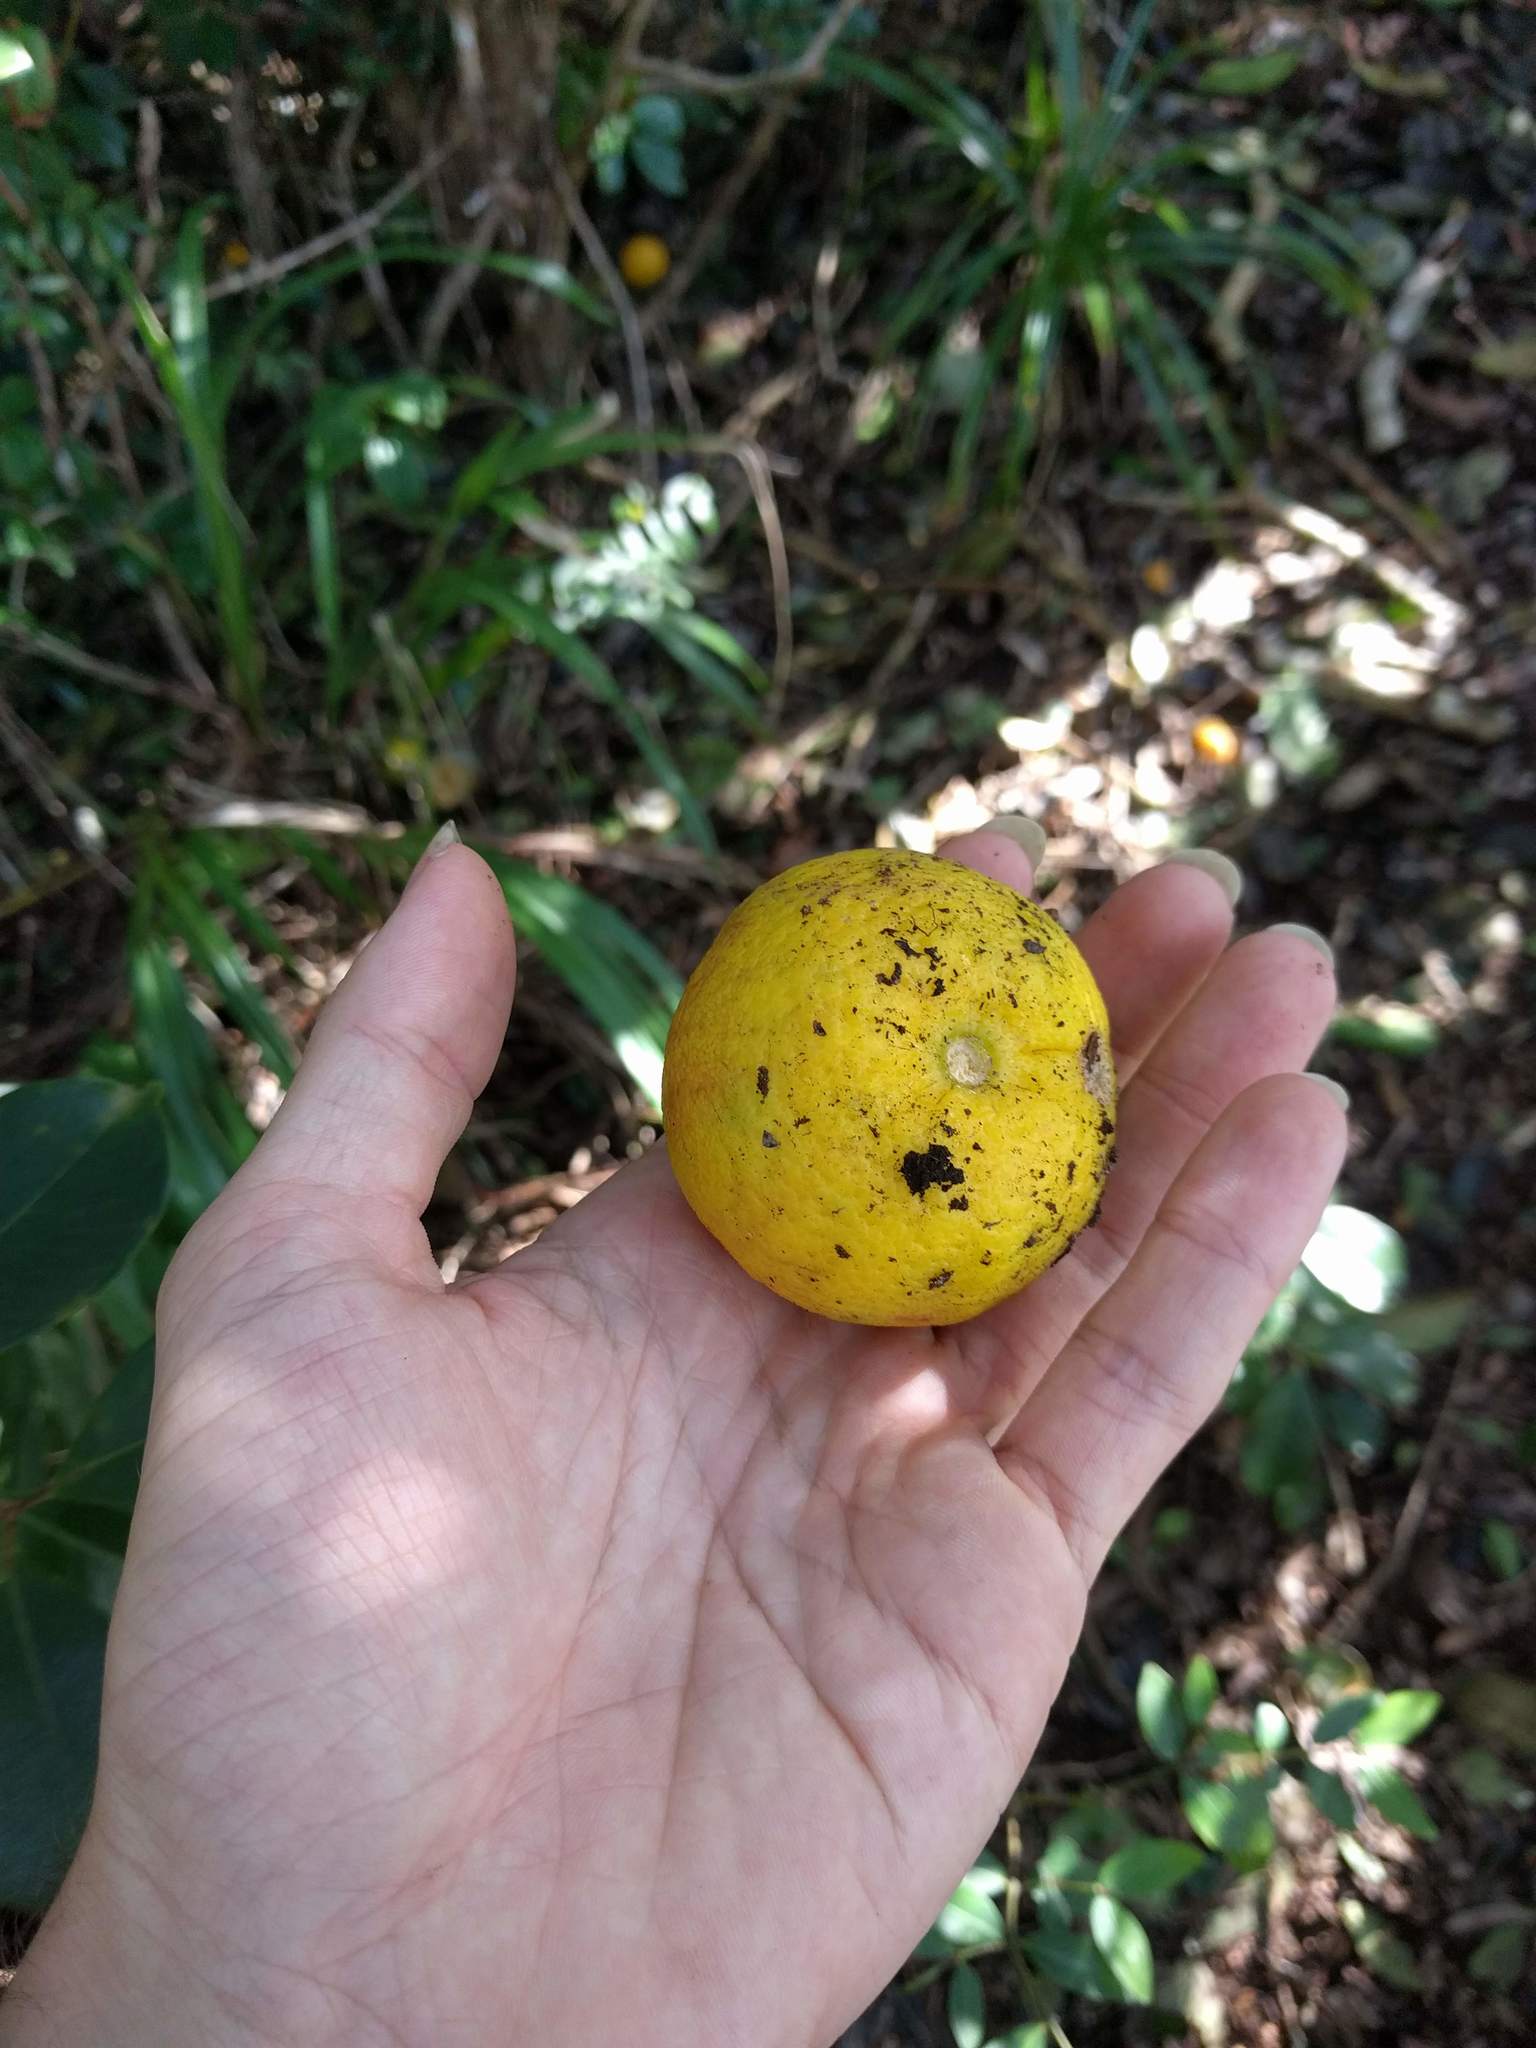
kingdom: Plantae
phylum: Tracheophyta
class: Magnoliopsida
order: Sapindales
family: Rutaceae
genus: Citrus
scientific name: Citrus
